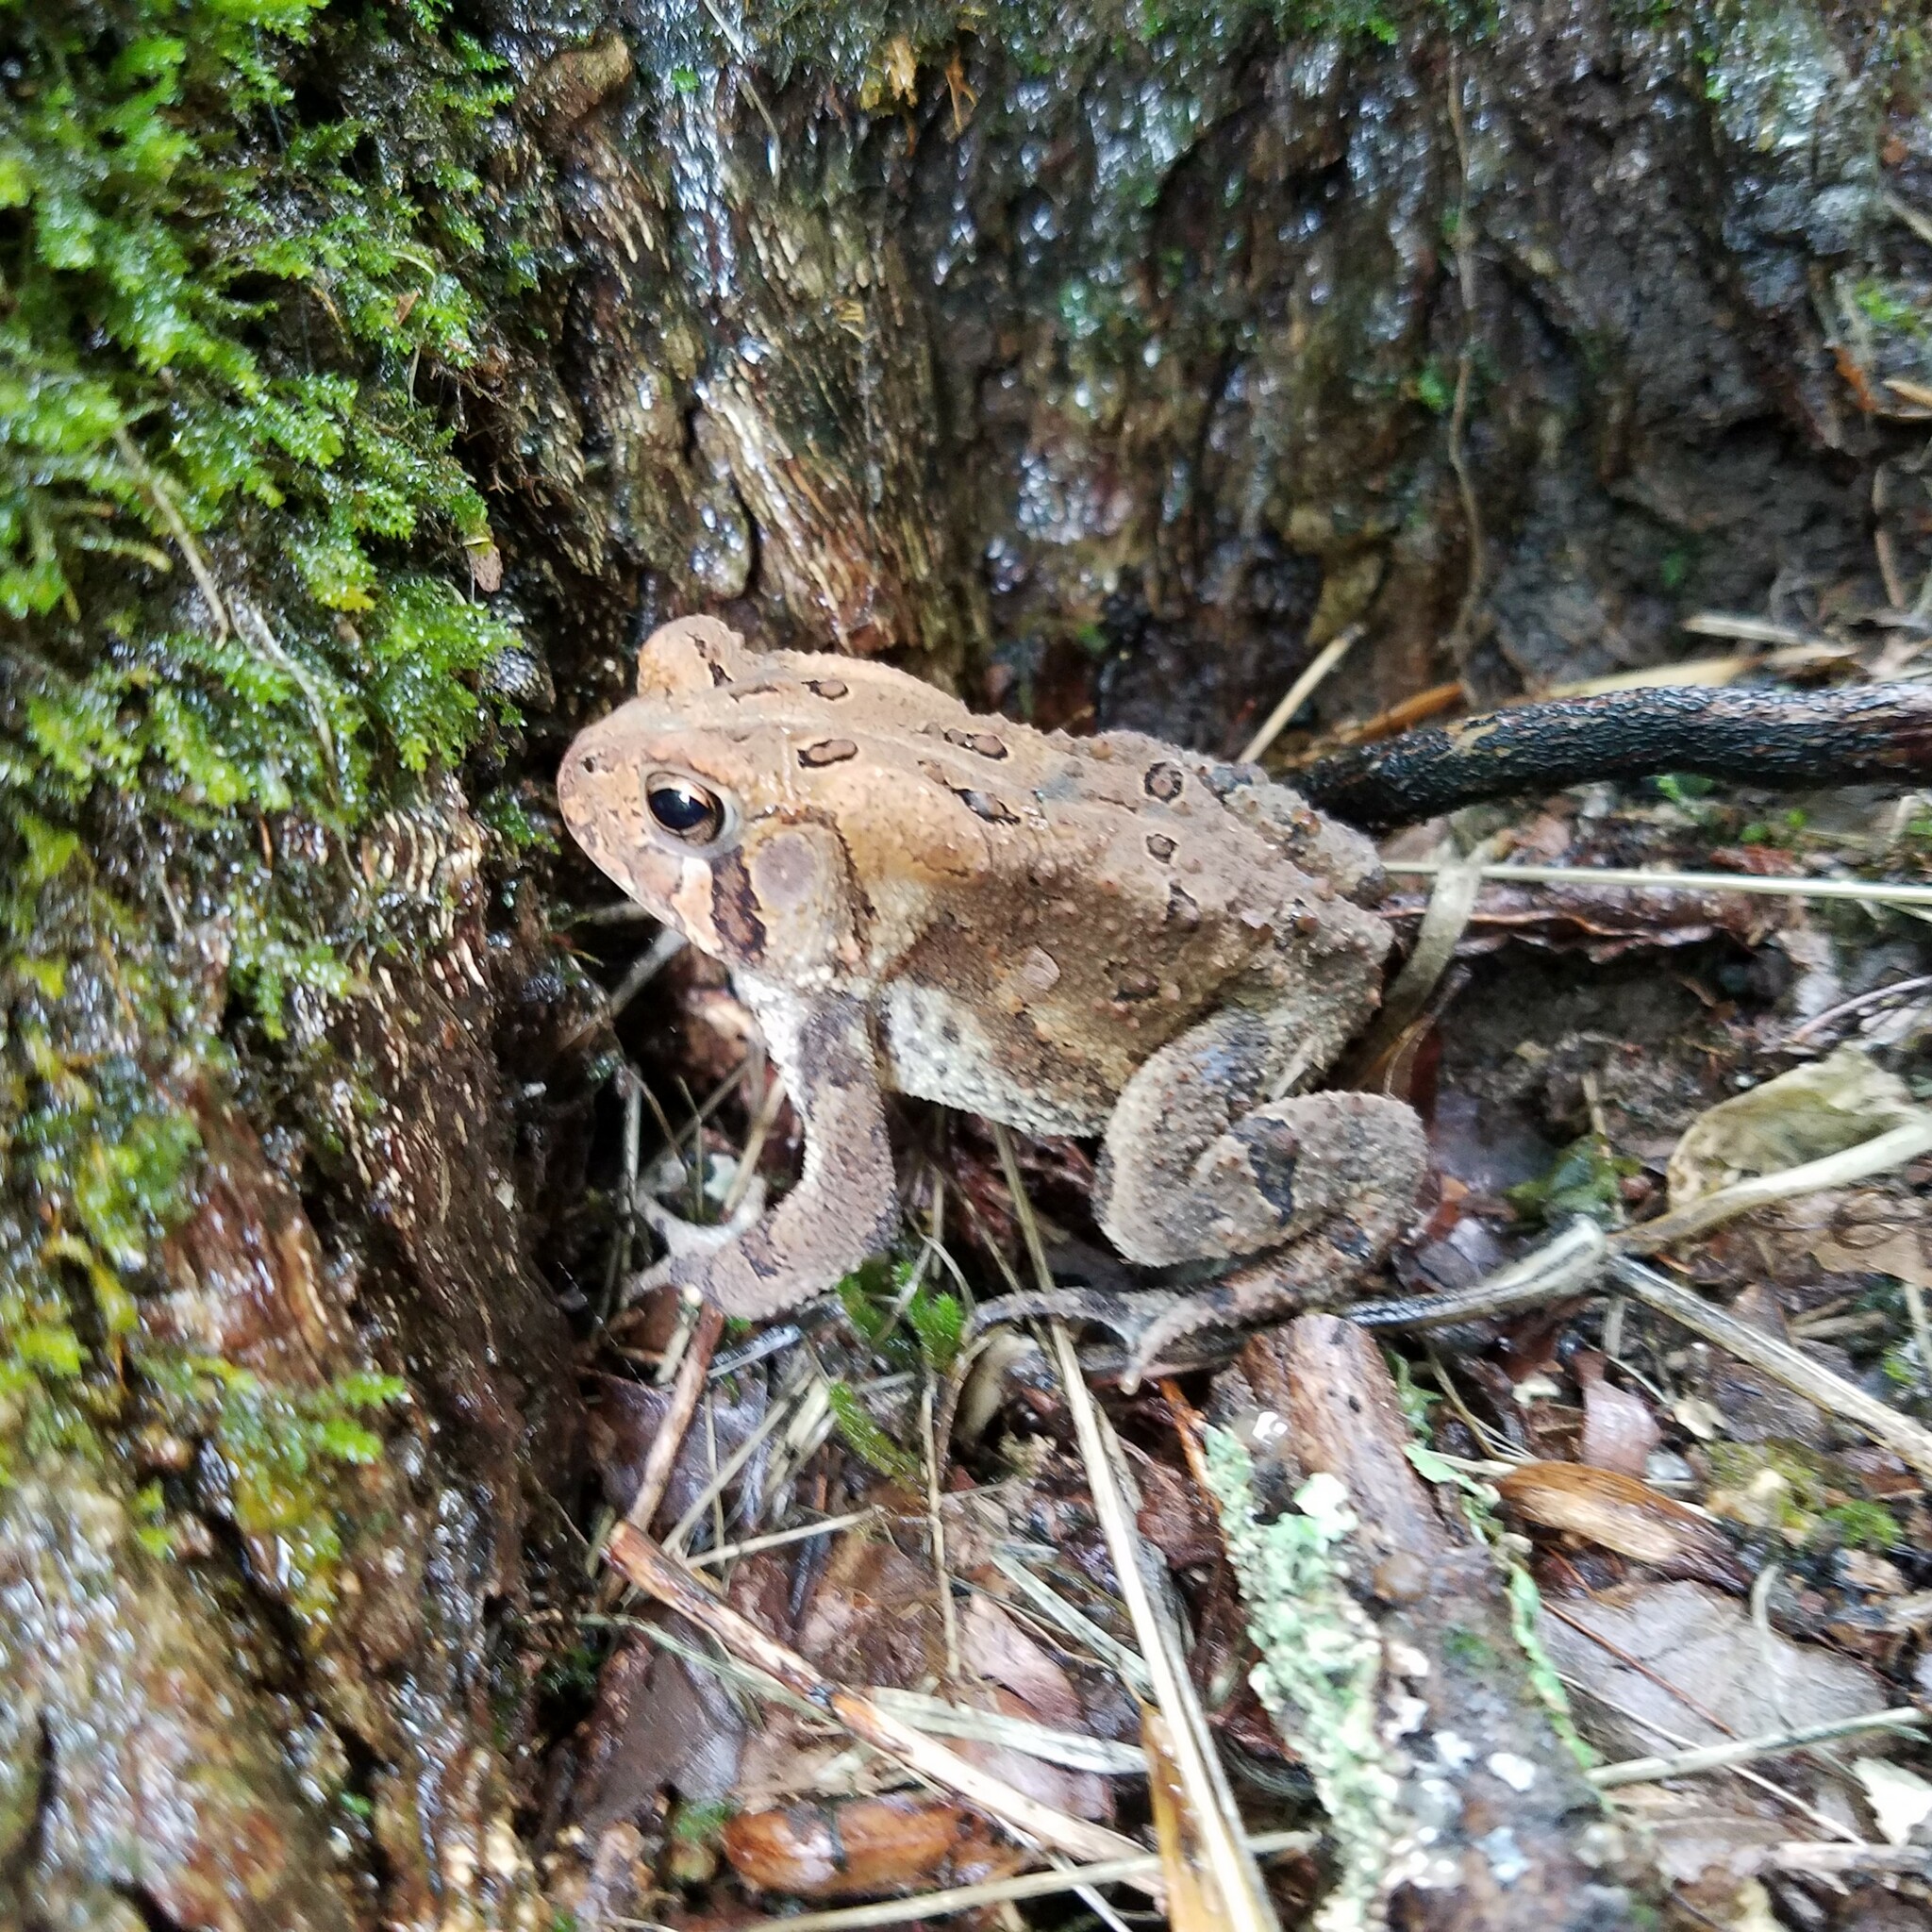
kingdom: Animalia
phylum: Chordata
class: Amphibia
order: Anura
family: Bufonidae
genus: Anaxyrus
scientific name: Anaxyrus americanus
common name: American toad
